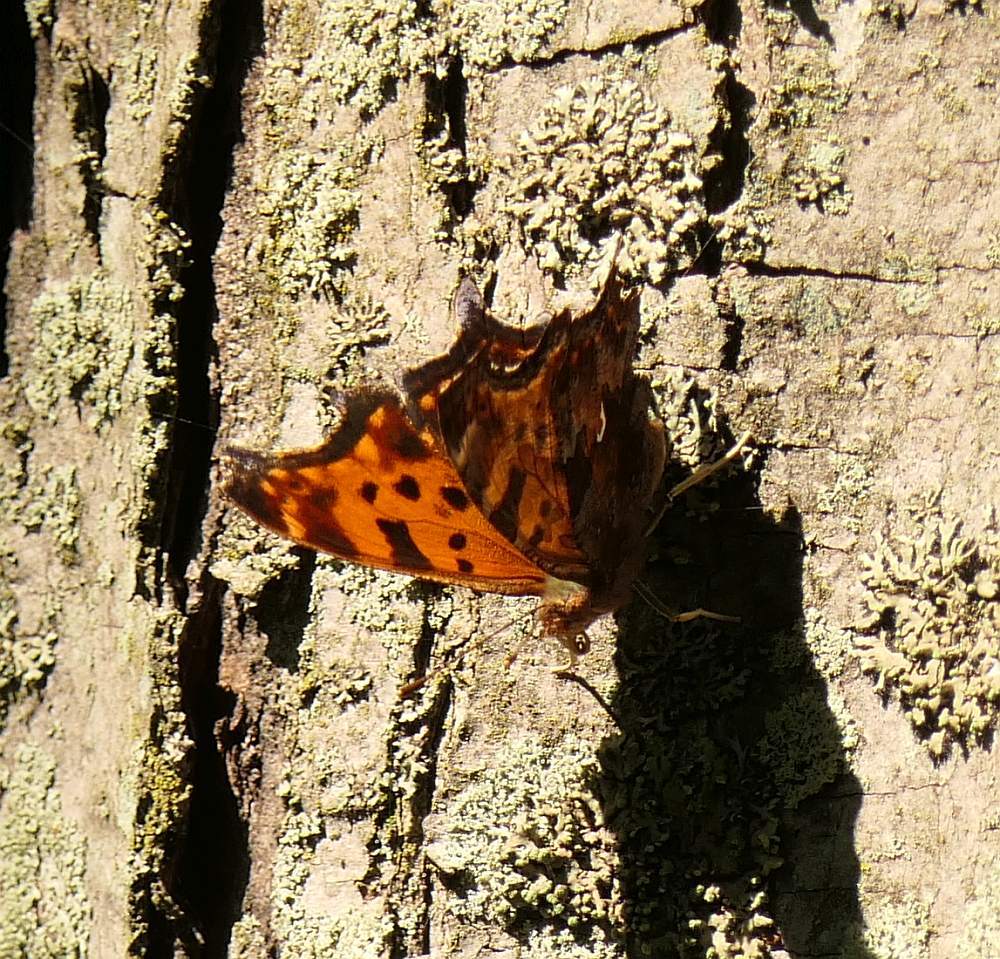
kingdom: Animalia
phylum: Arthropoda
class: Insecta
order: Lepidoptera
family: Nymphalidae
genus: Polygonia
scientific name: Polygonia comma
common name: Eastern comma
